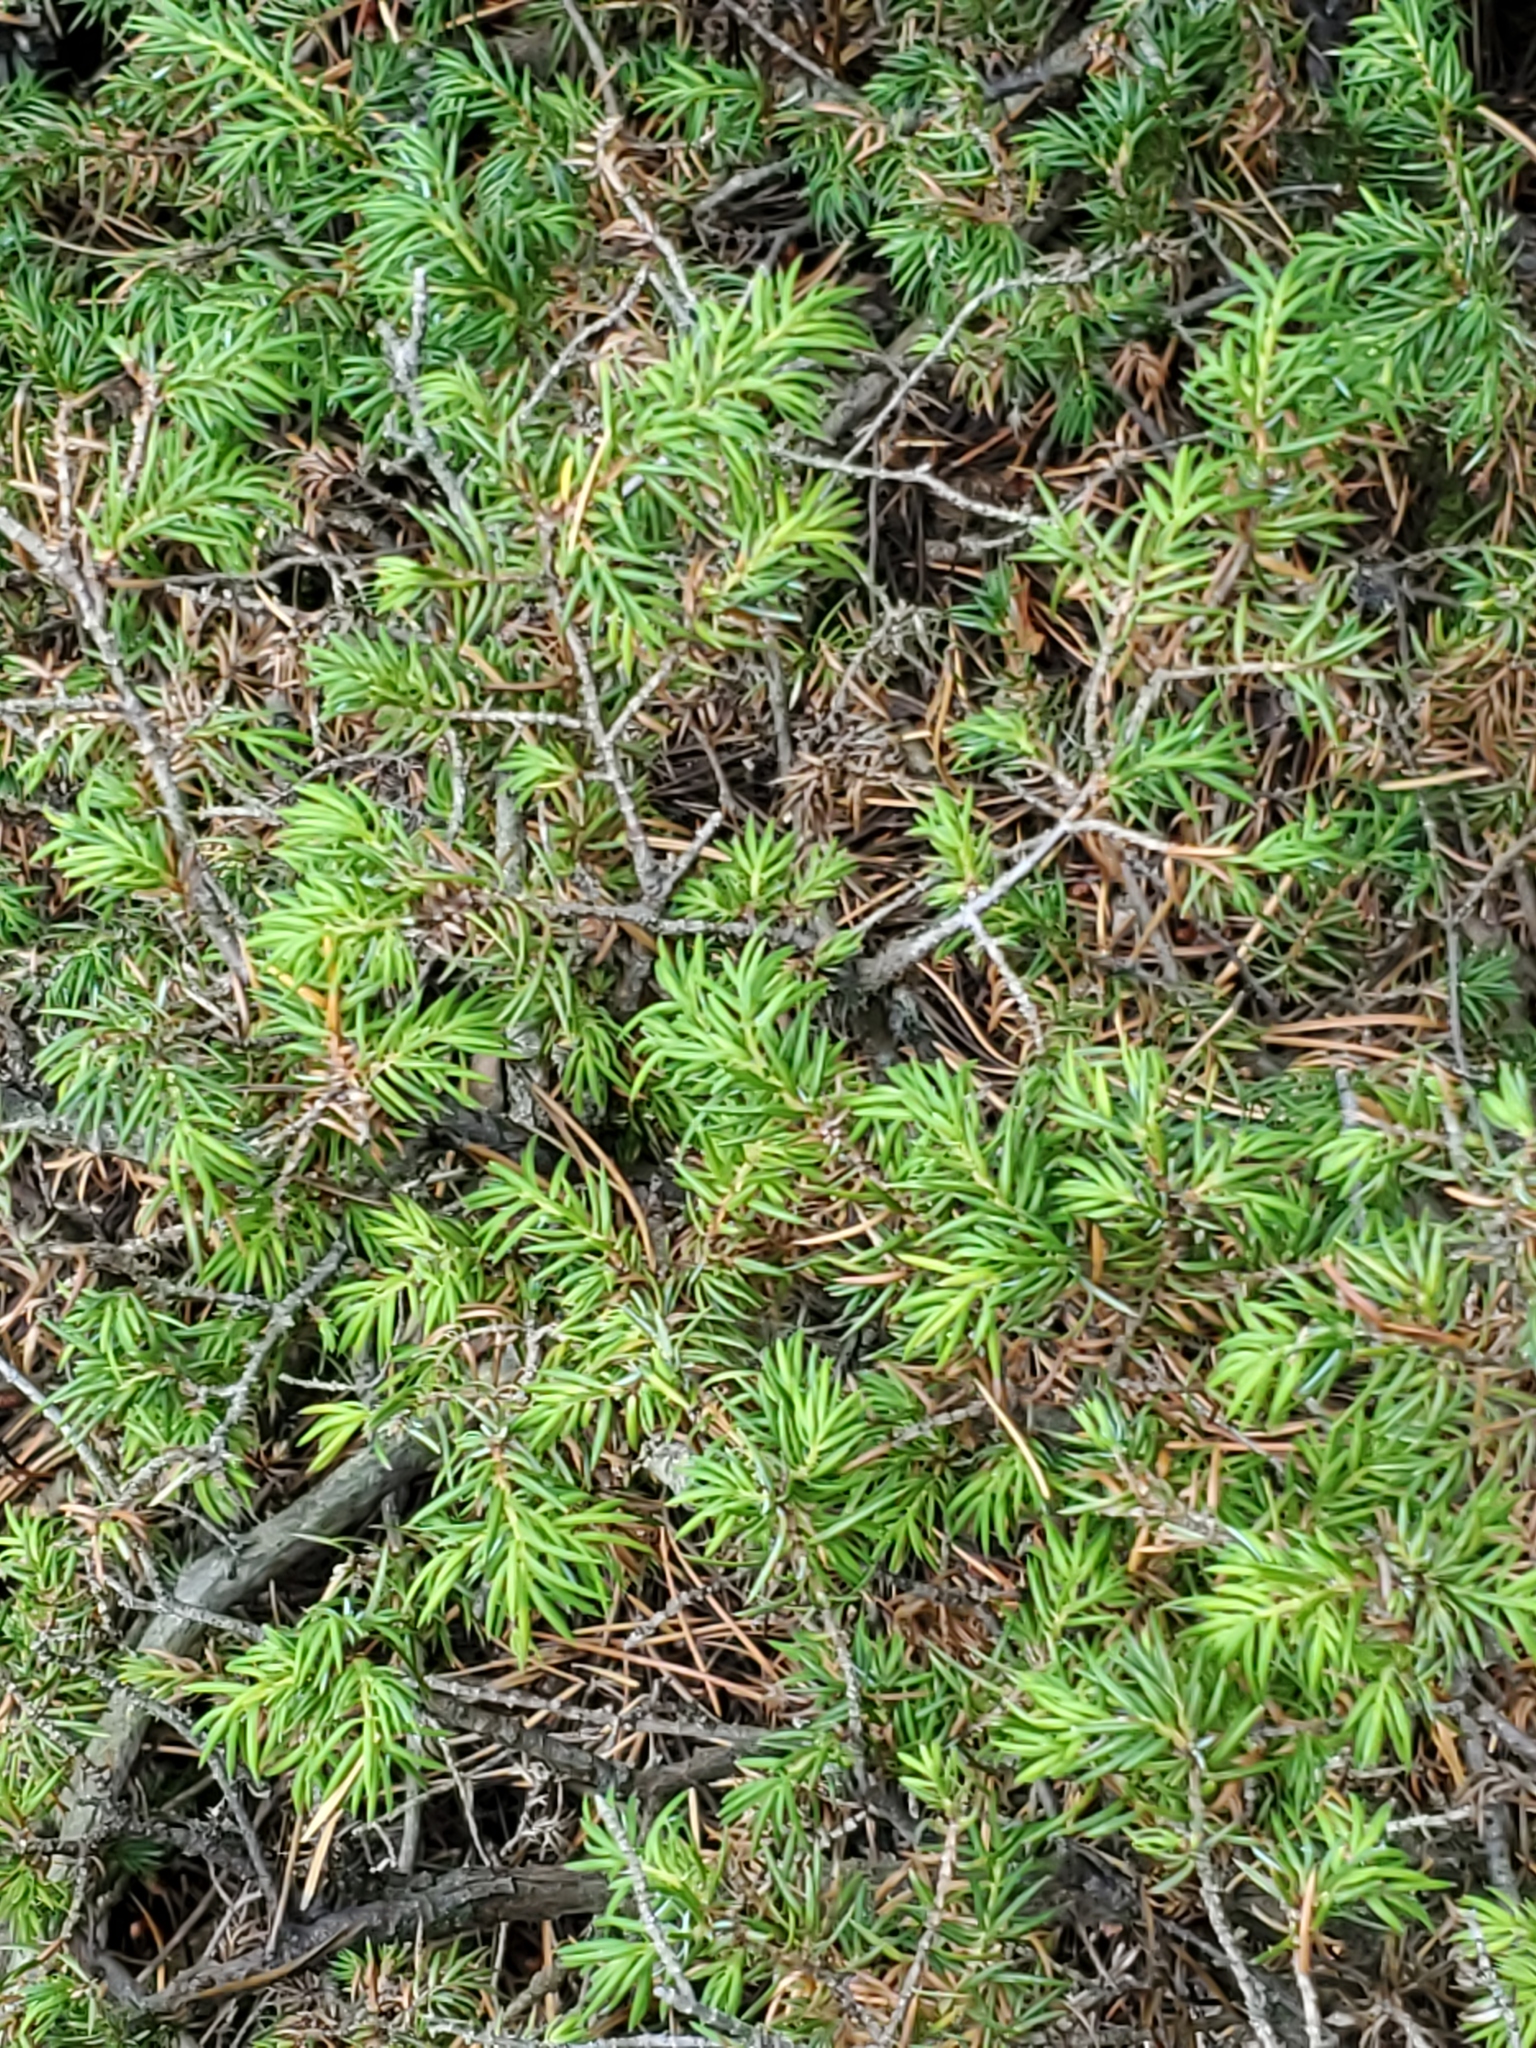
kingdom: Plantae
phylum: Tracheophyta
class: Pinopsida
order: Pinales
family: Cupressaceae
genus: Juniperus
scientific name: Juniperus communis
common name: Common juniper
